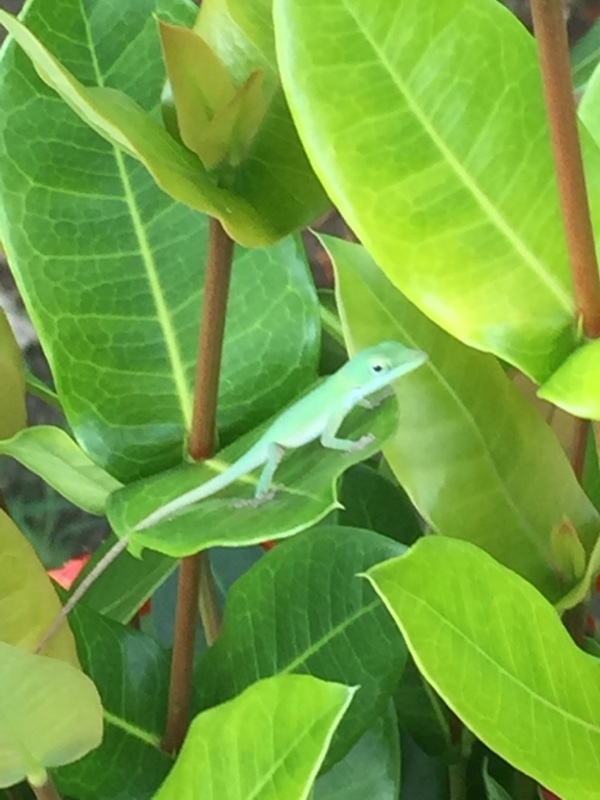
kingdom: Animalia
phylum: Chordata
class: Squamata
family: Dactyloidae
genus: Anolis
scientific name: Anolis porcatus
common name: Cuban green anole
